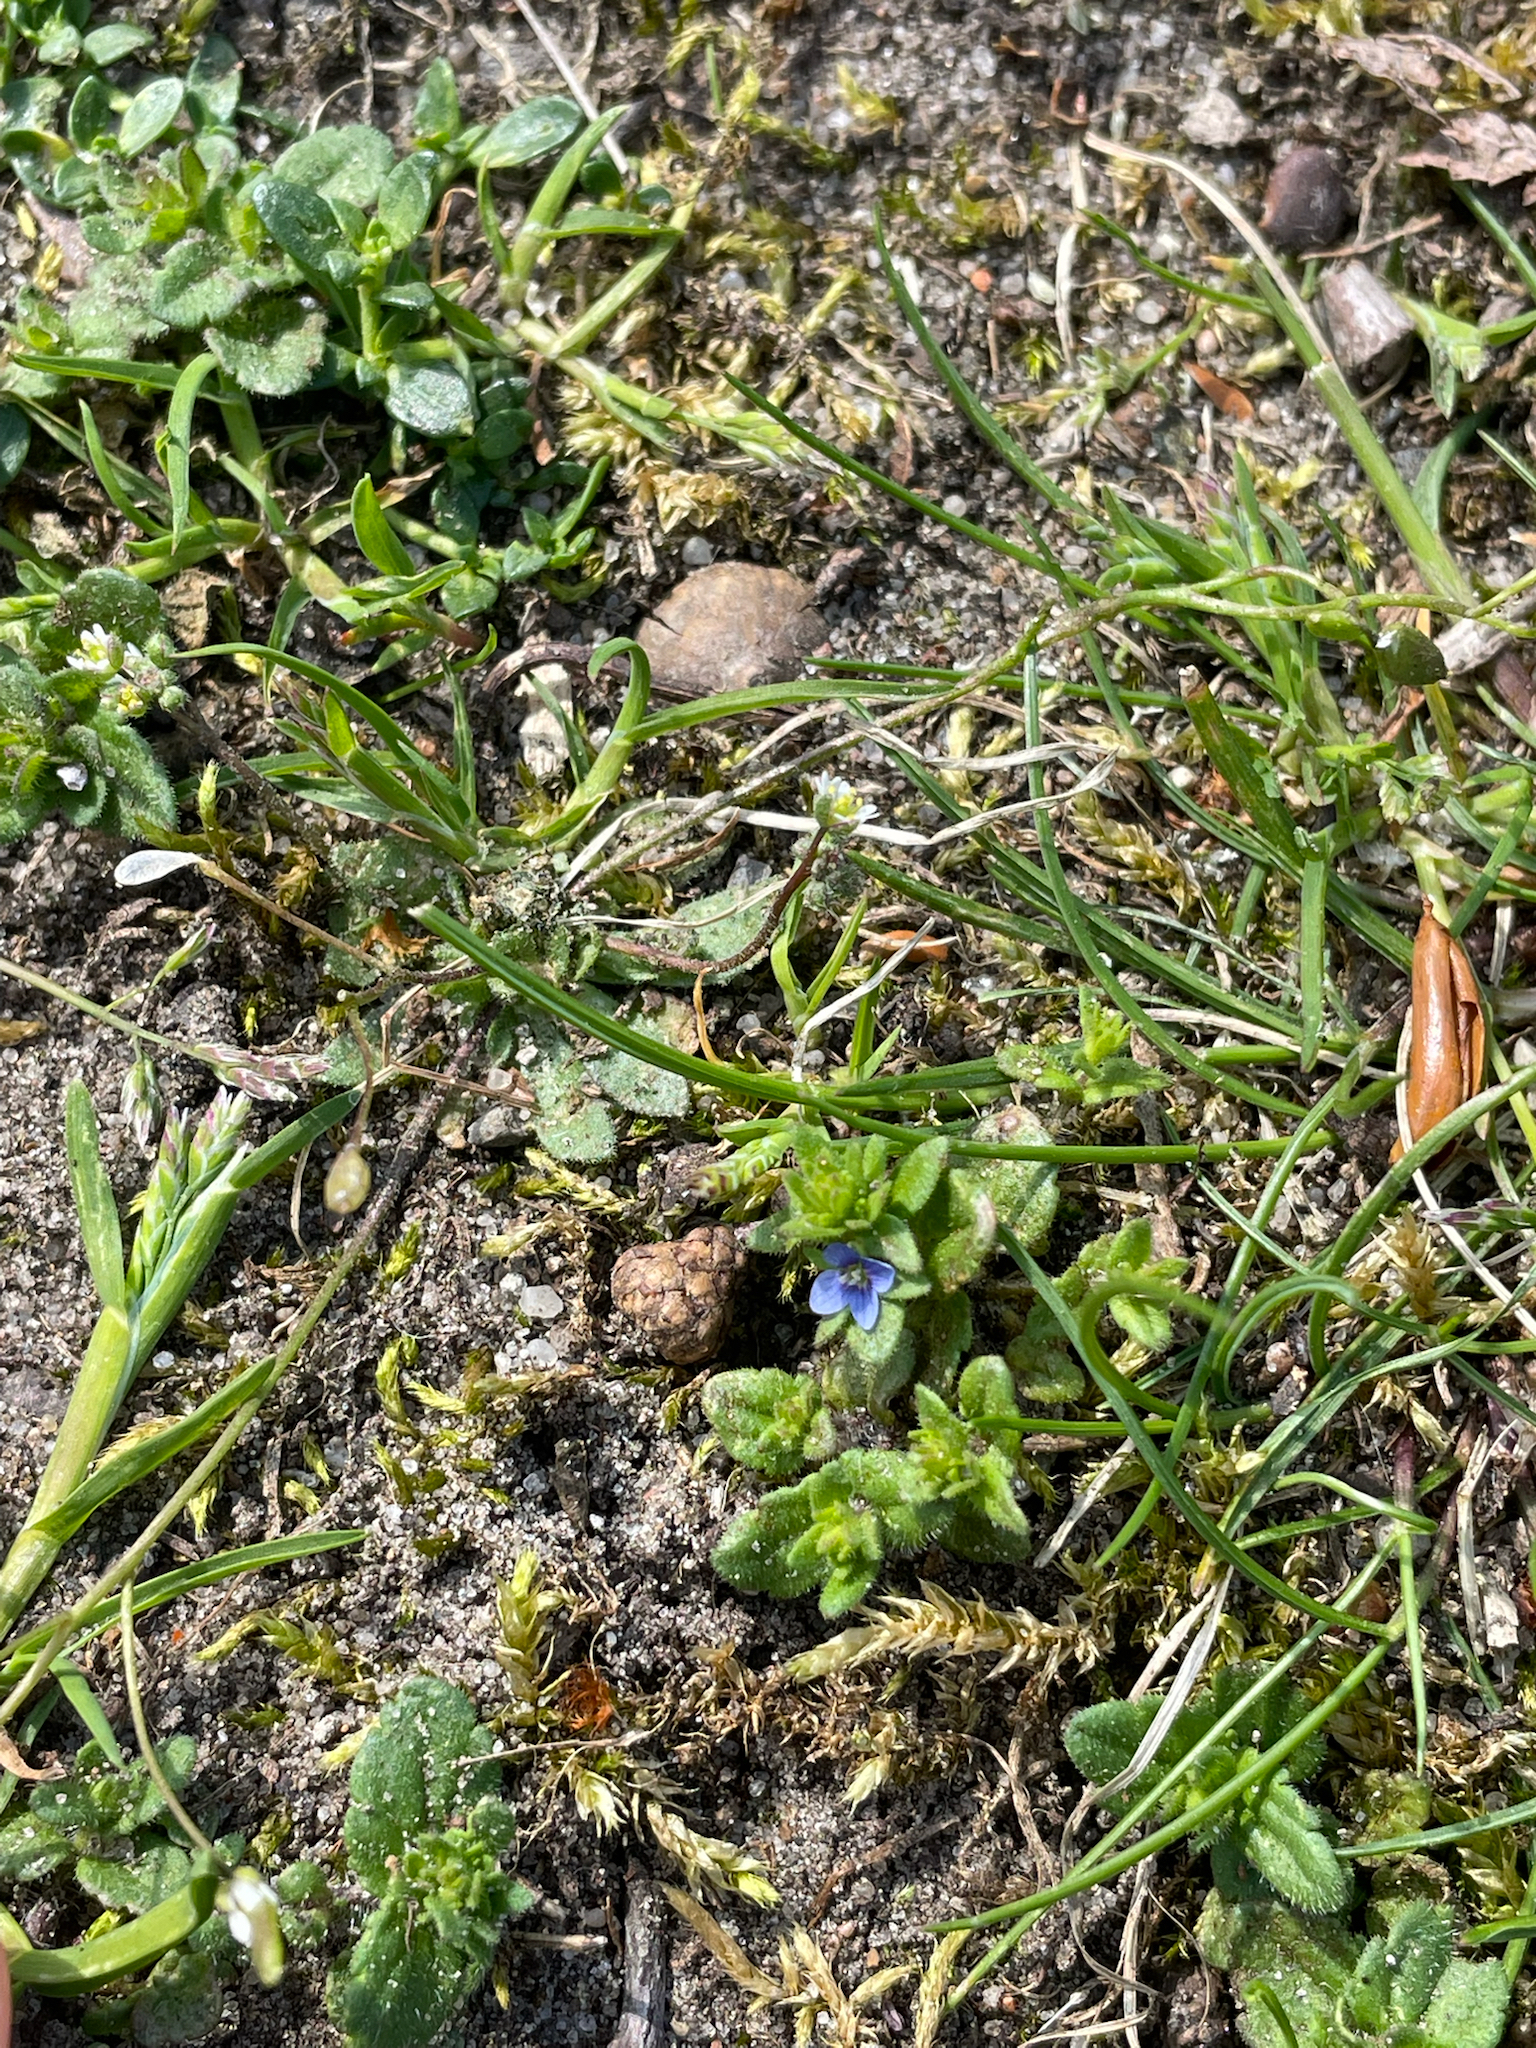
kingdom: Plantae
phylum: Tracheophyta
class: Magnoliopsida
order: Lamiales
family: Plantaginaceae
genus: Veronica
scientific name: Veronica arvensis
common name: Corn speedwell
